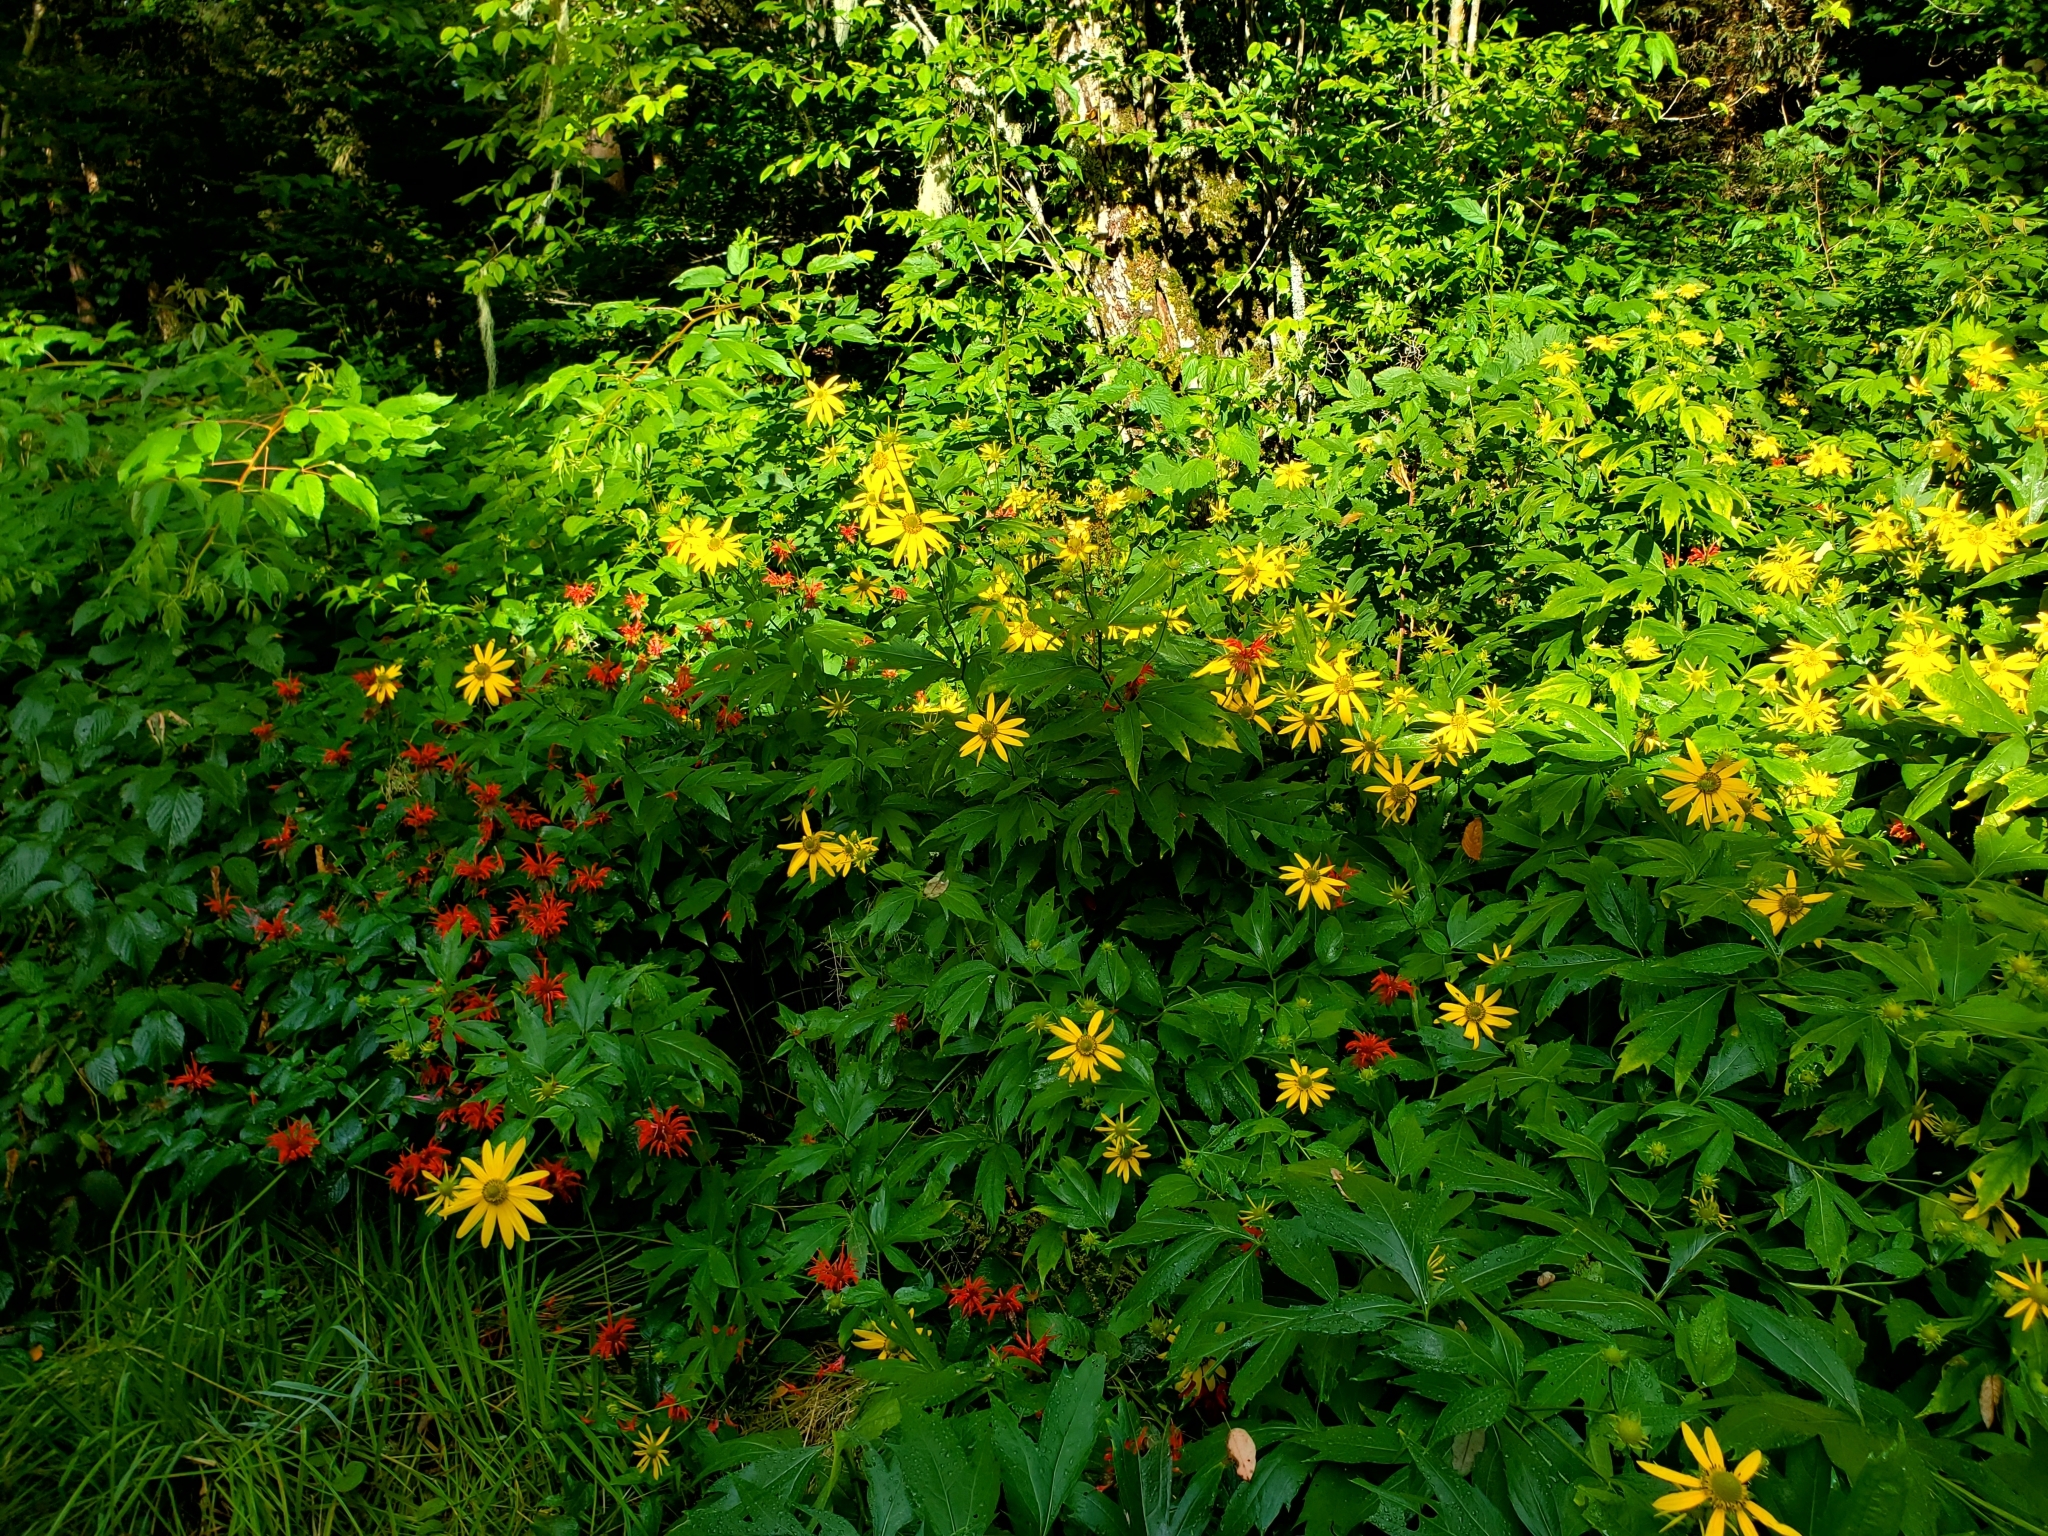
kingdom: Plantae
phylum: Tracheophyta
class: Magnoliopsida
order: Asterales
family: Asteraceae
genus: Rudbeckia
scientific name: Rudbeckia laciniata
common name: Coneflower
